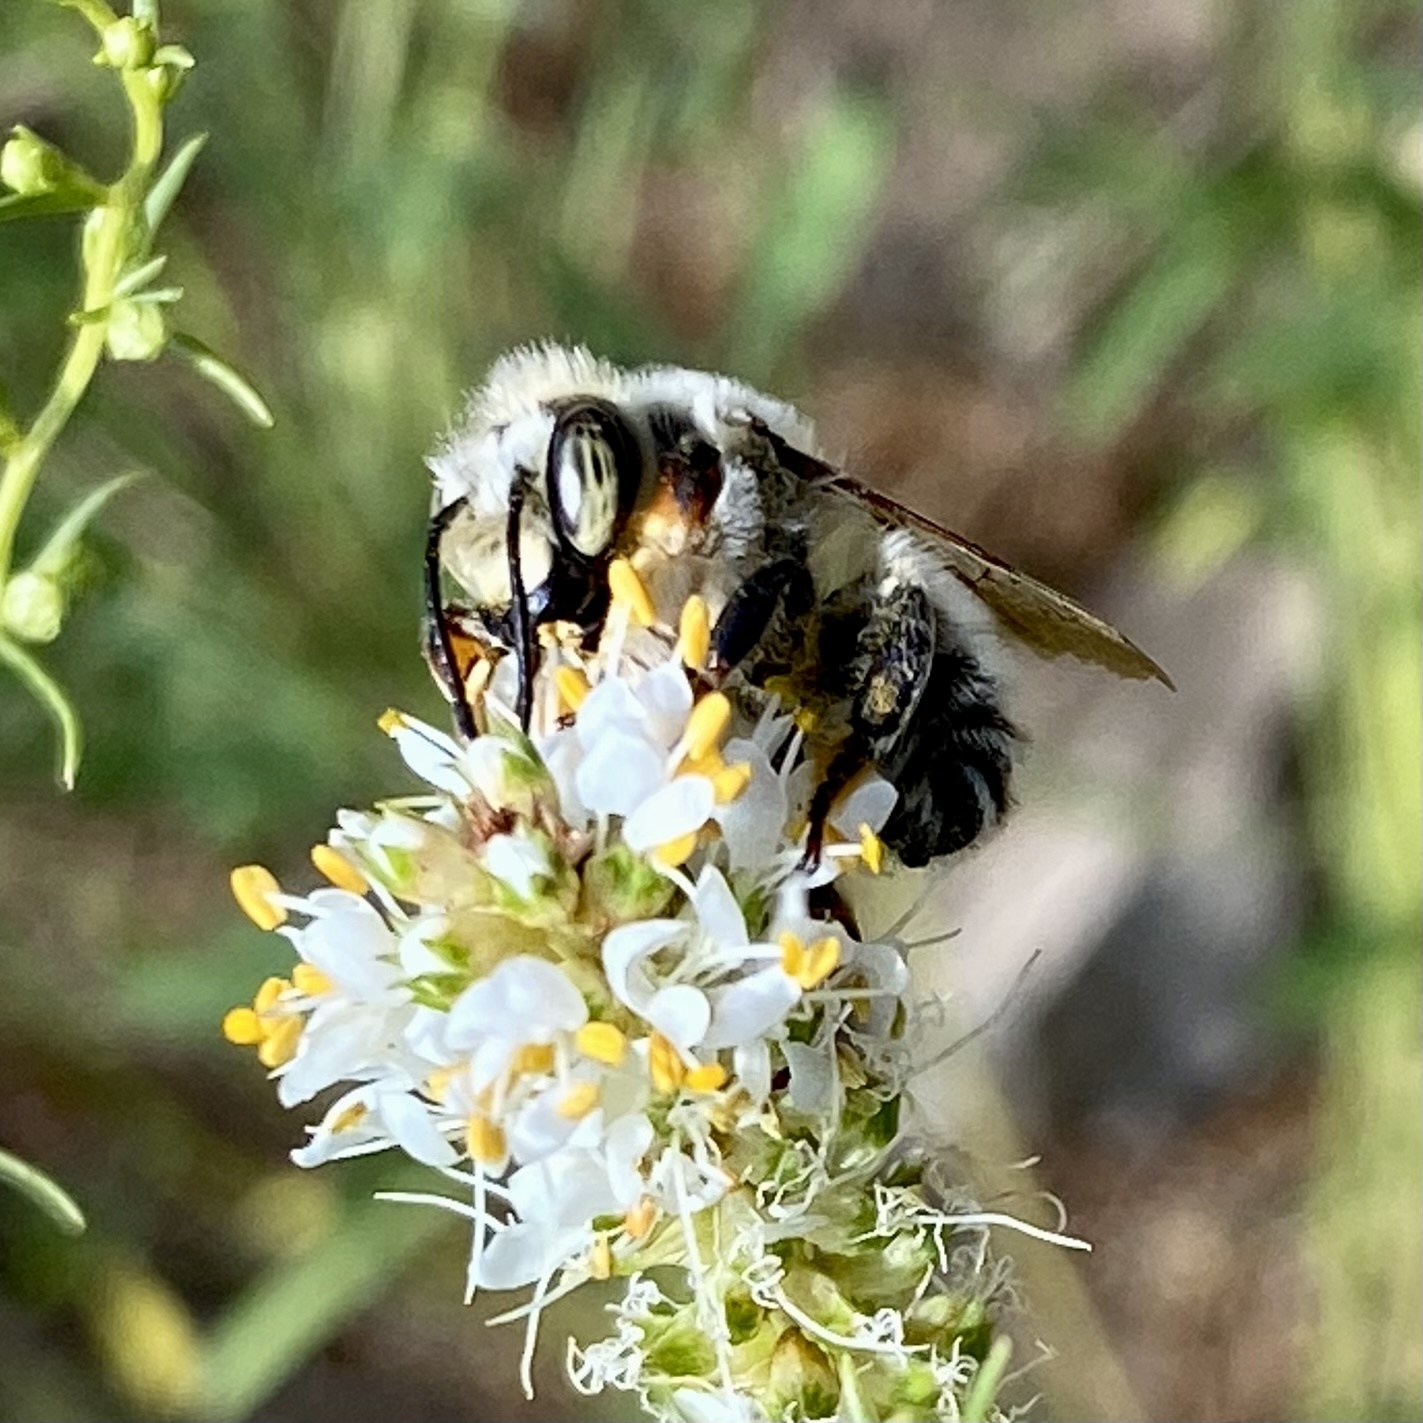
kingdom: Animalia
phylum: Arthropoda
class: Insecta
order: Hymenoptera
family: Megachilidae
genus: Xanthosarus
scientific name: Xanthosarus
